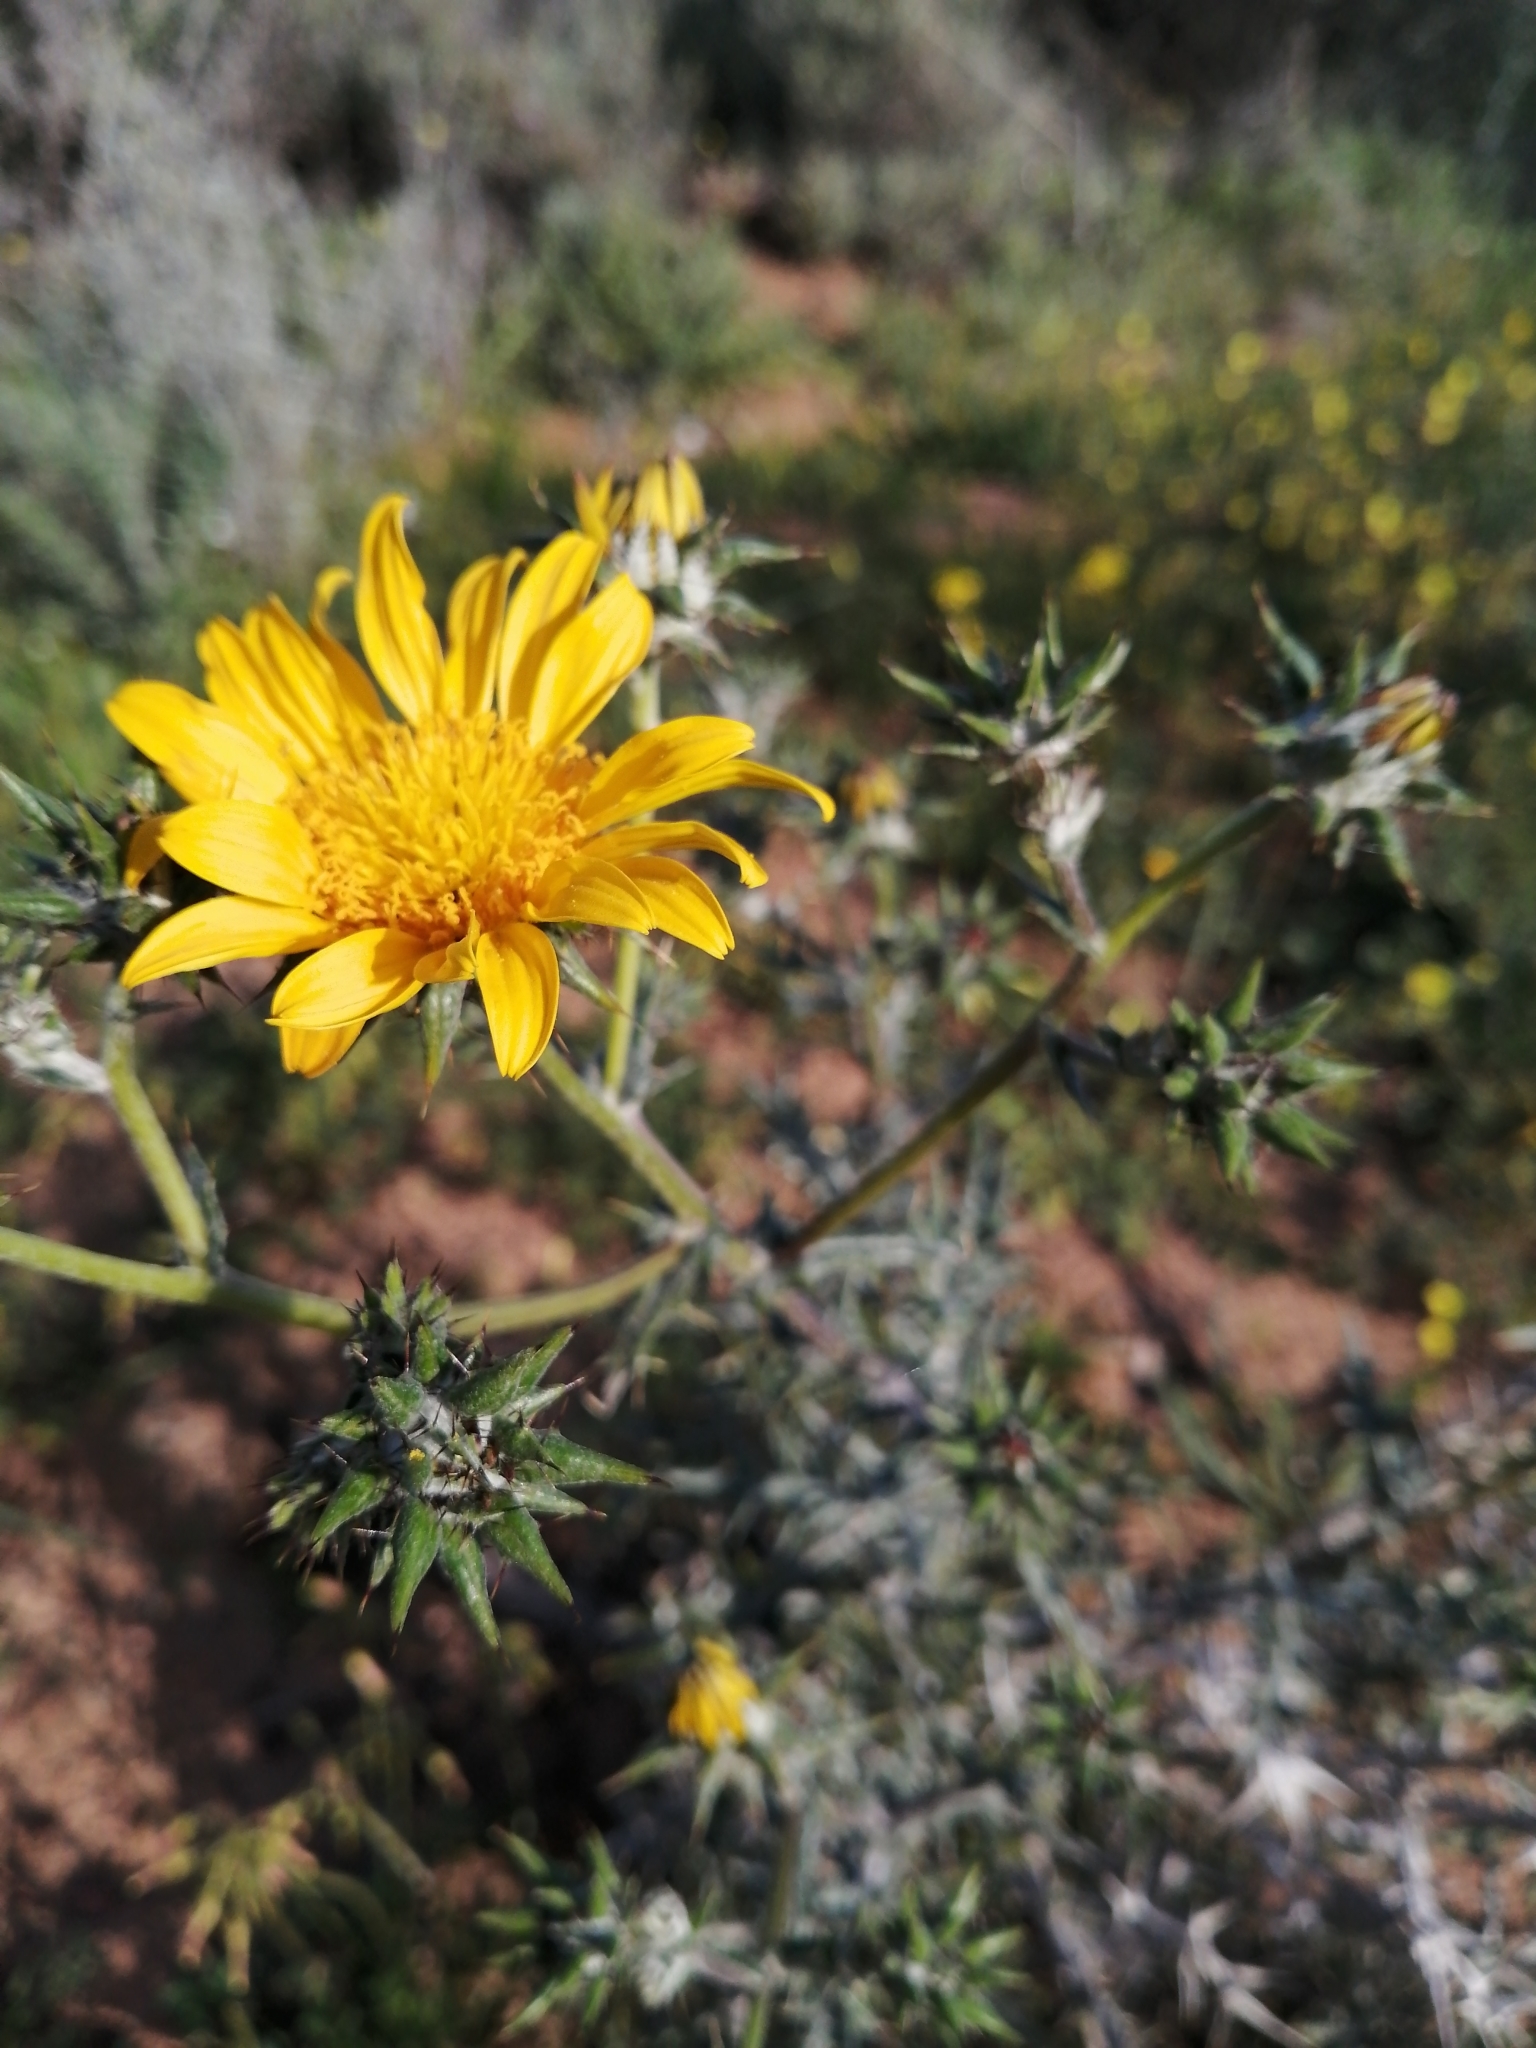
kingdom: Plantae
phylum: Tracheophyta
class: Magnoliopsida
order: Asterales
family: Asteraceae
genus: Berkheya
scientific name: Berkheya heterophylla
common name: Prickly gousblom
